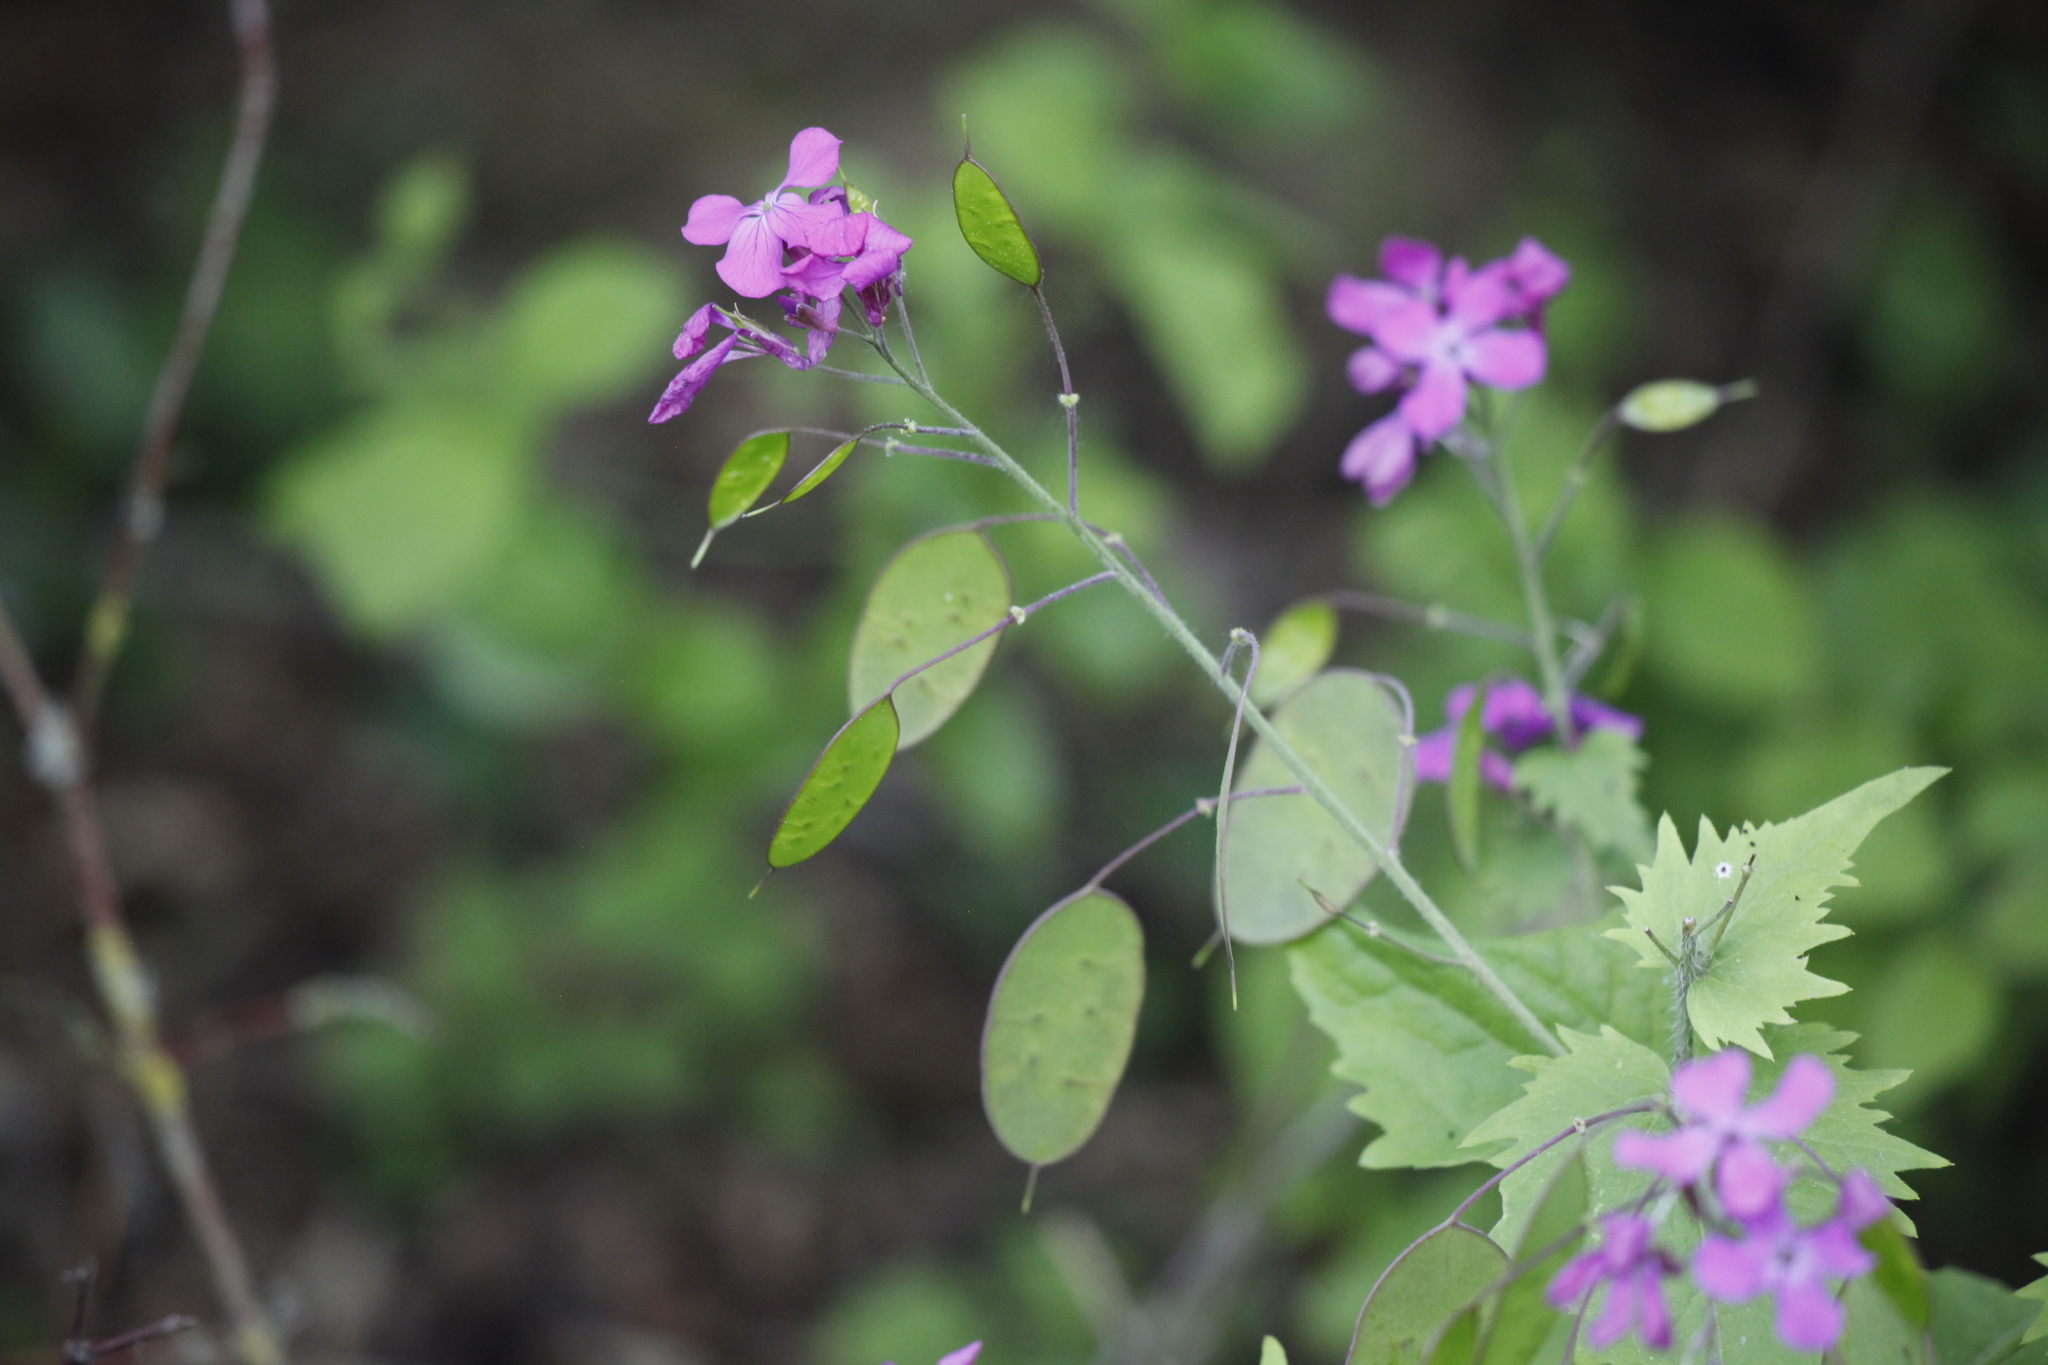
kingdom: Plantae
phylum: Tracheophyta
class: Magnoliopsida
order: Brassicales
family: Brassicaceae
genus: Lunaria
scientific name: Lunaria annua
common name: Honesty
